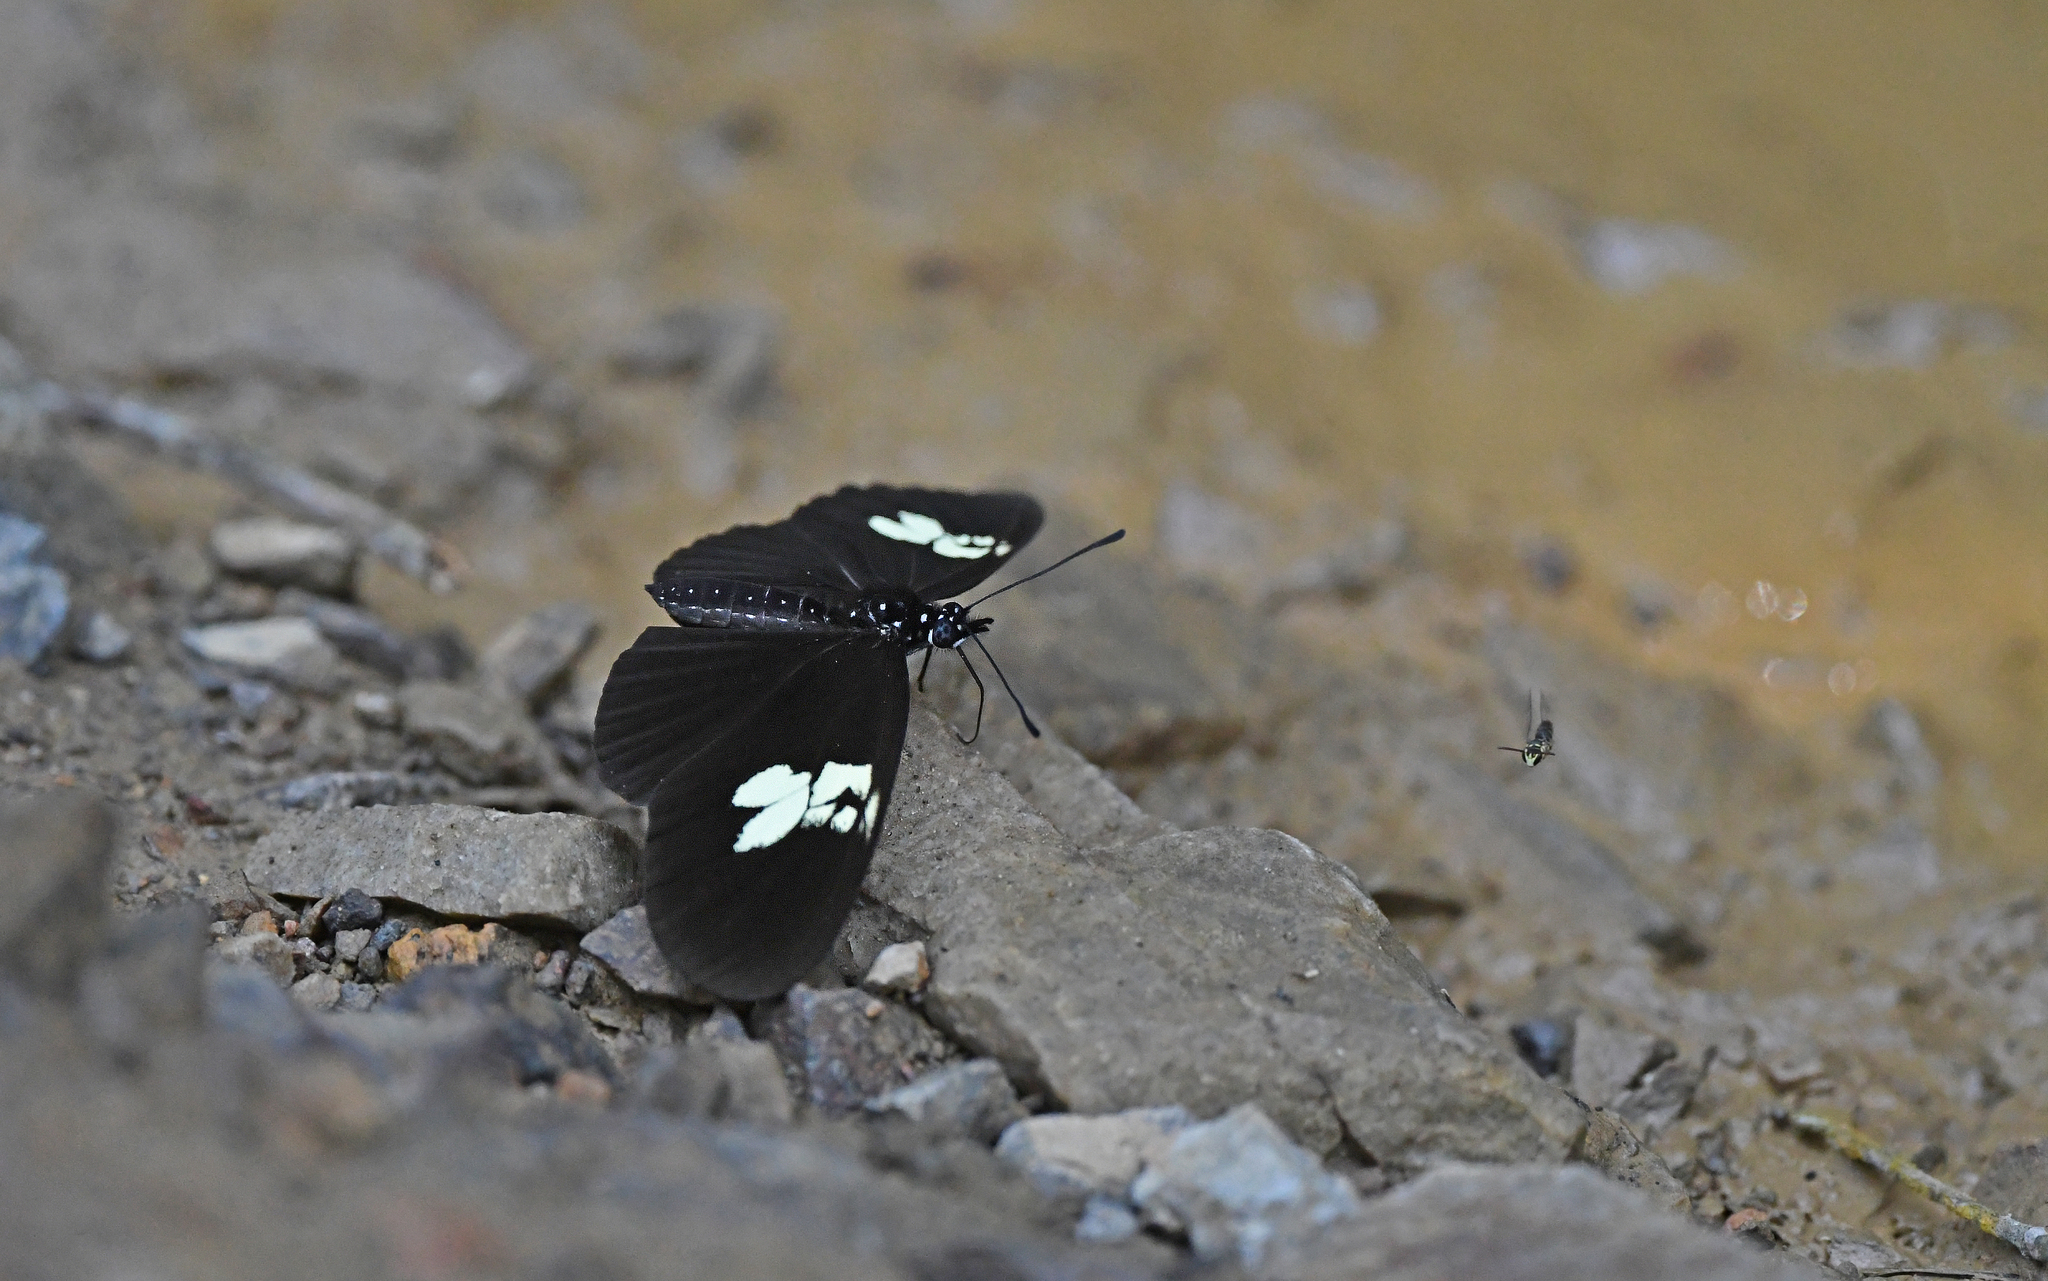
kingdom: Animalia
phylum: Arthropoda
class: Insecta
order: Lepidoptera
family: Nymphalidae
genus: Eueides
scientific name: Eueides heliconioides
